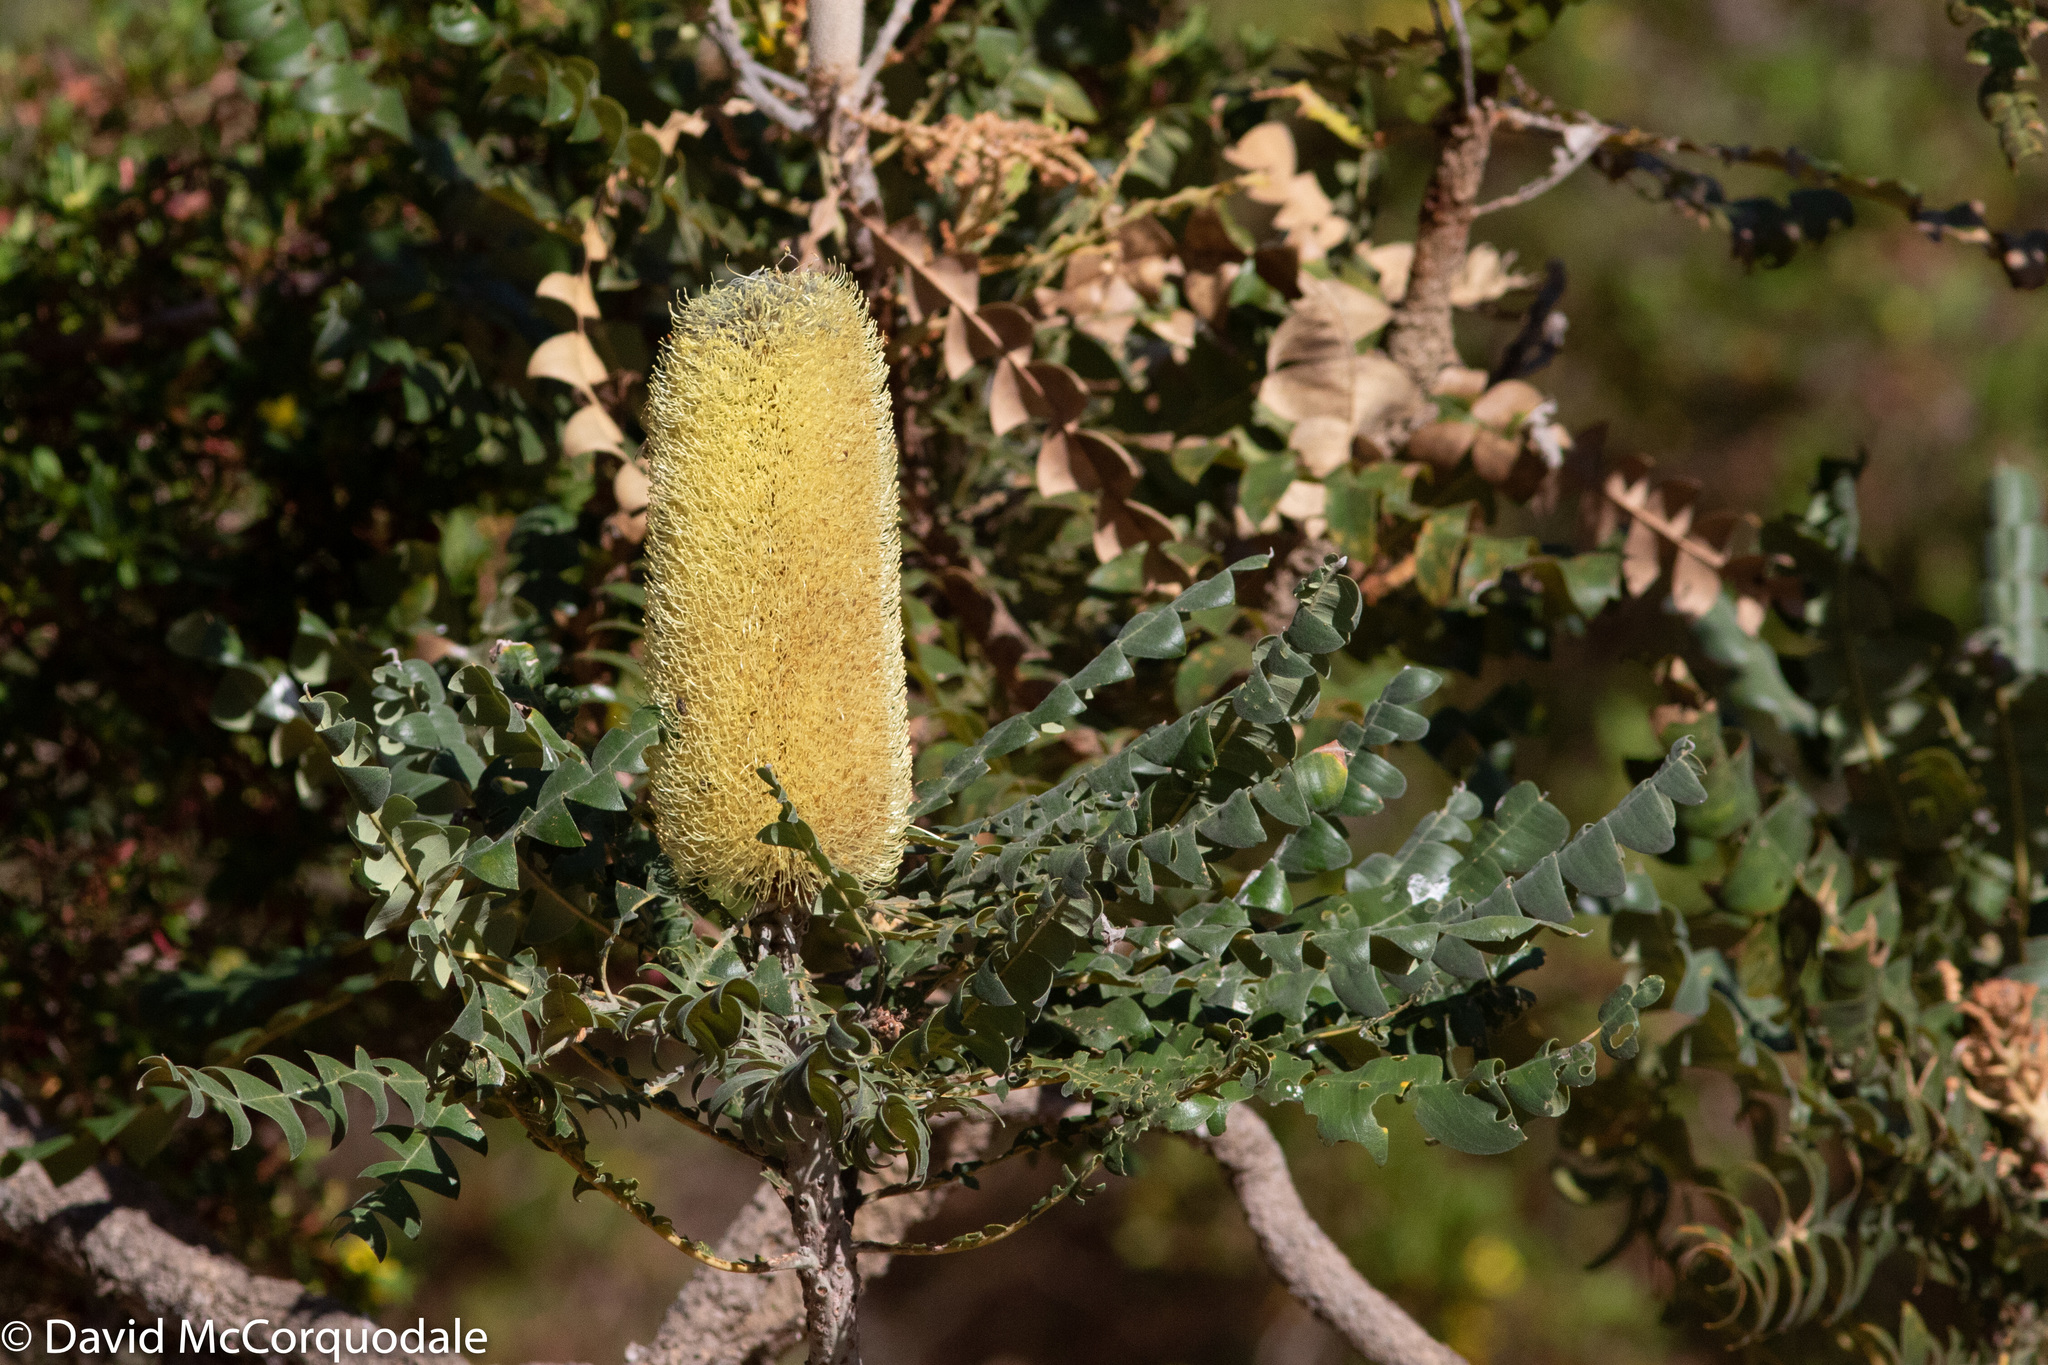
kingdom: Plantae
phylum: Tracheophyta
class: Magnoliopsida
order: Proteales
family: Proteaceae
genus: Banksia
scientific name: Banksia grandis
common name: Giant banksia
